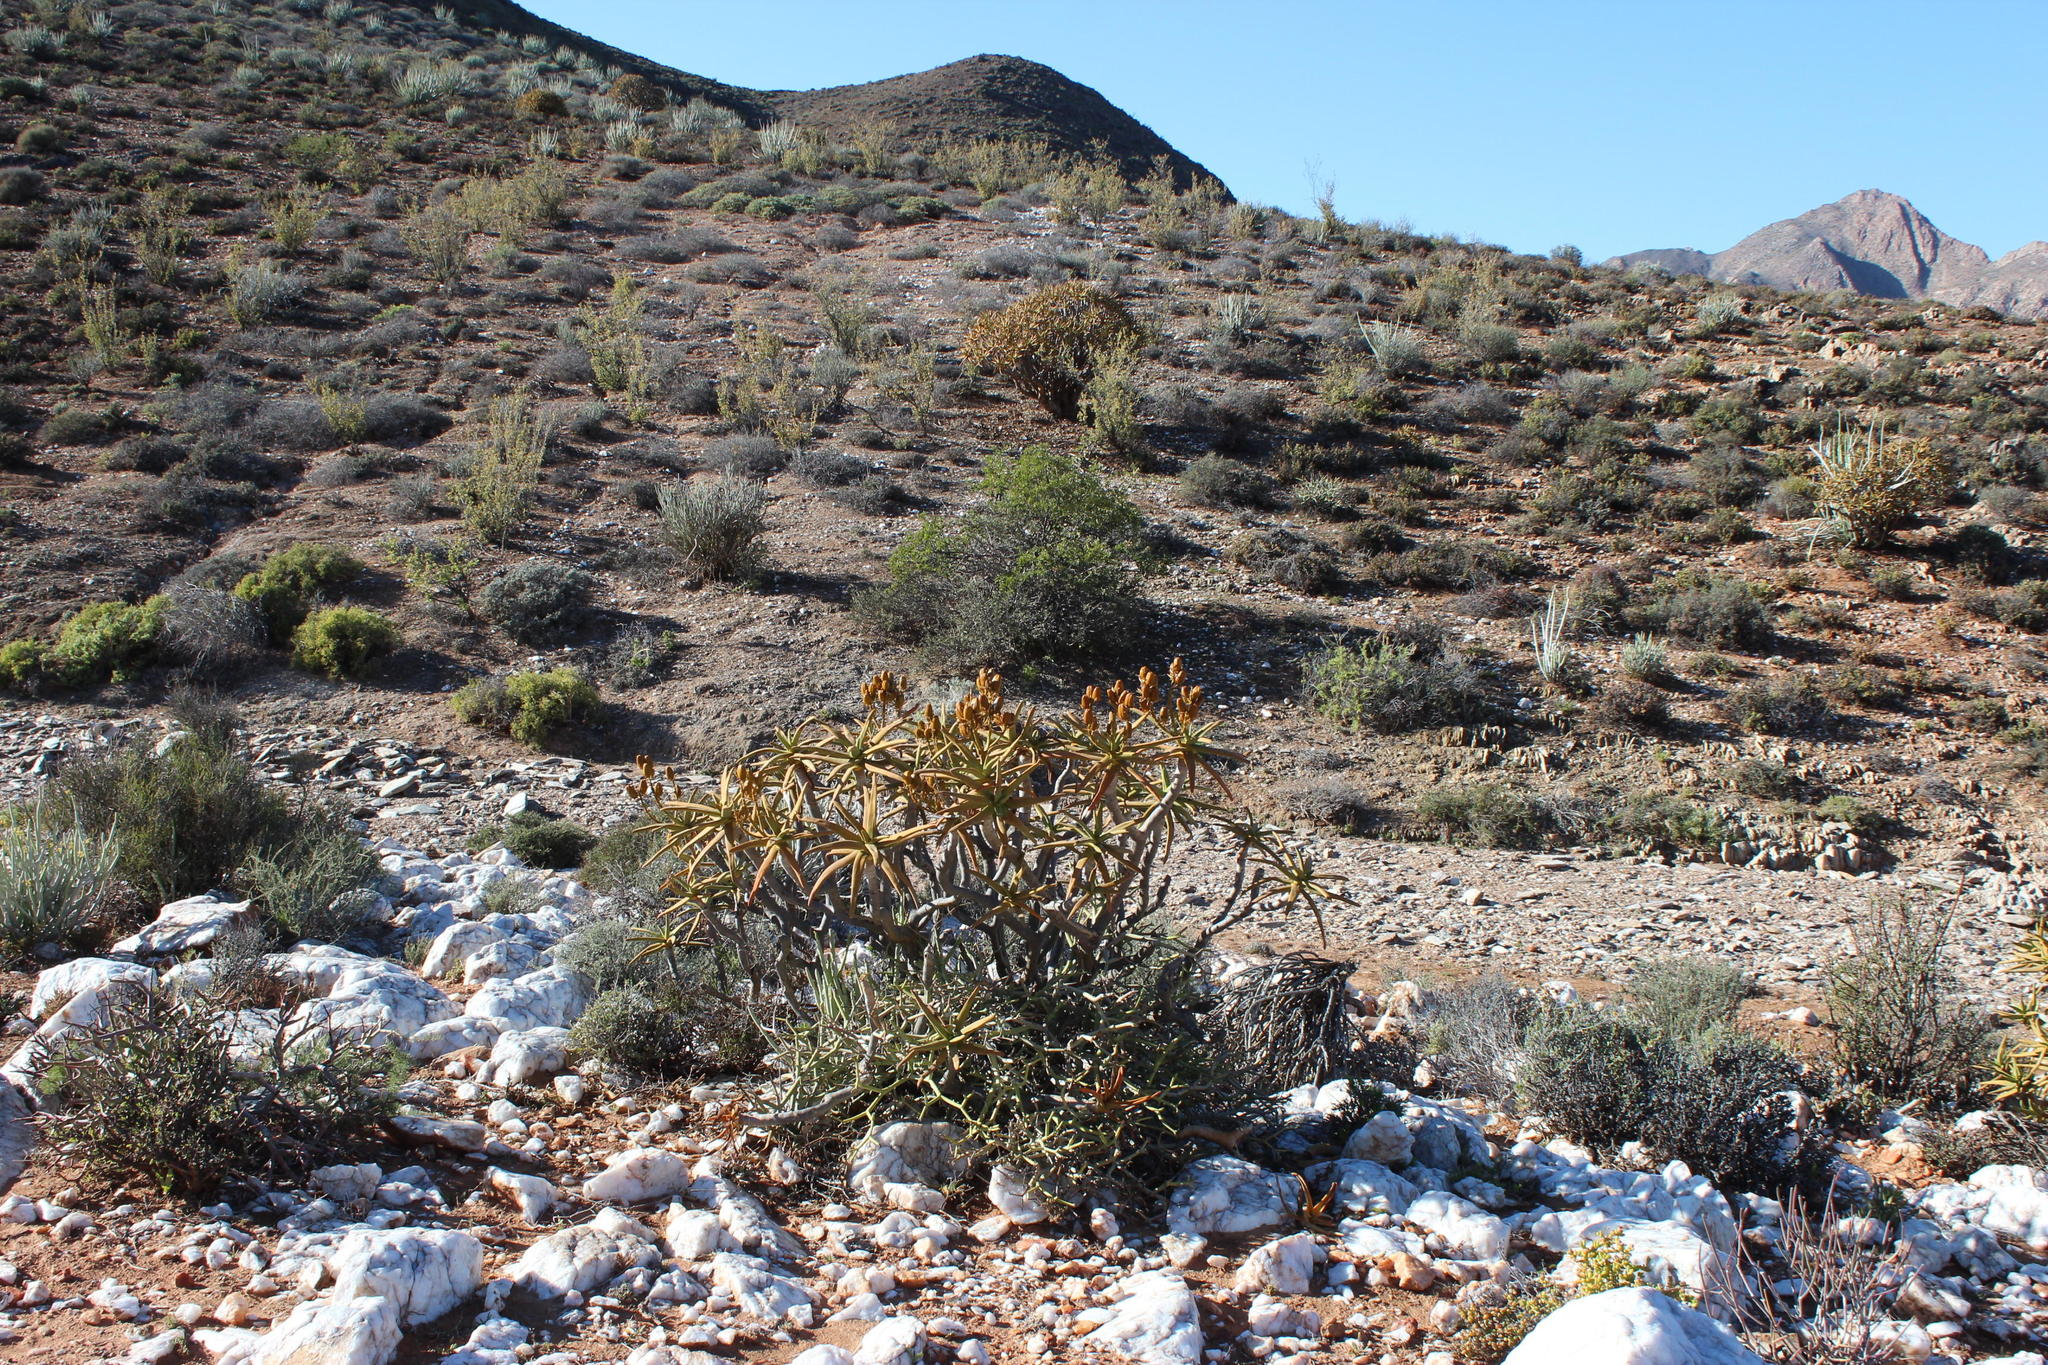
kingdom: Plantae
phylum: Tracheophyta
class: Liliopsida
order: Asparagales
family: Asphodelaceae
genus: Aloidendron
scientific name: Aloidendron ramosissimum
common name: Bush quiver tree
